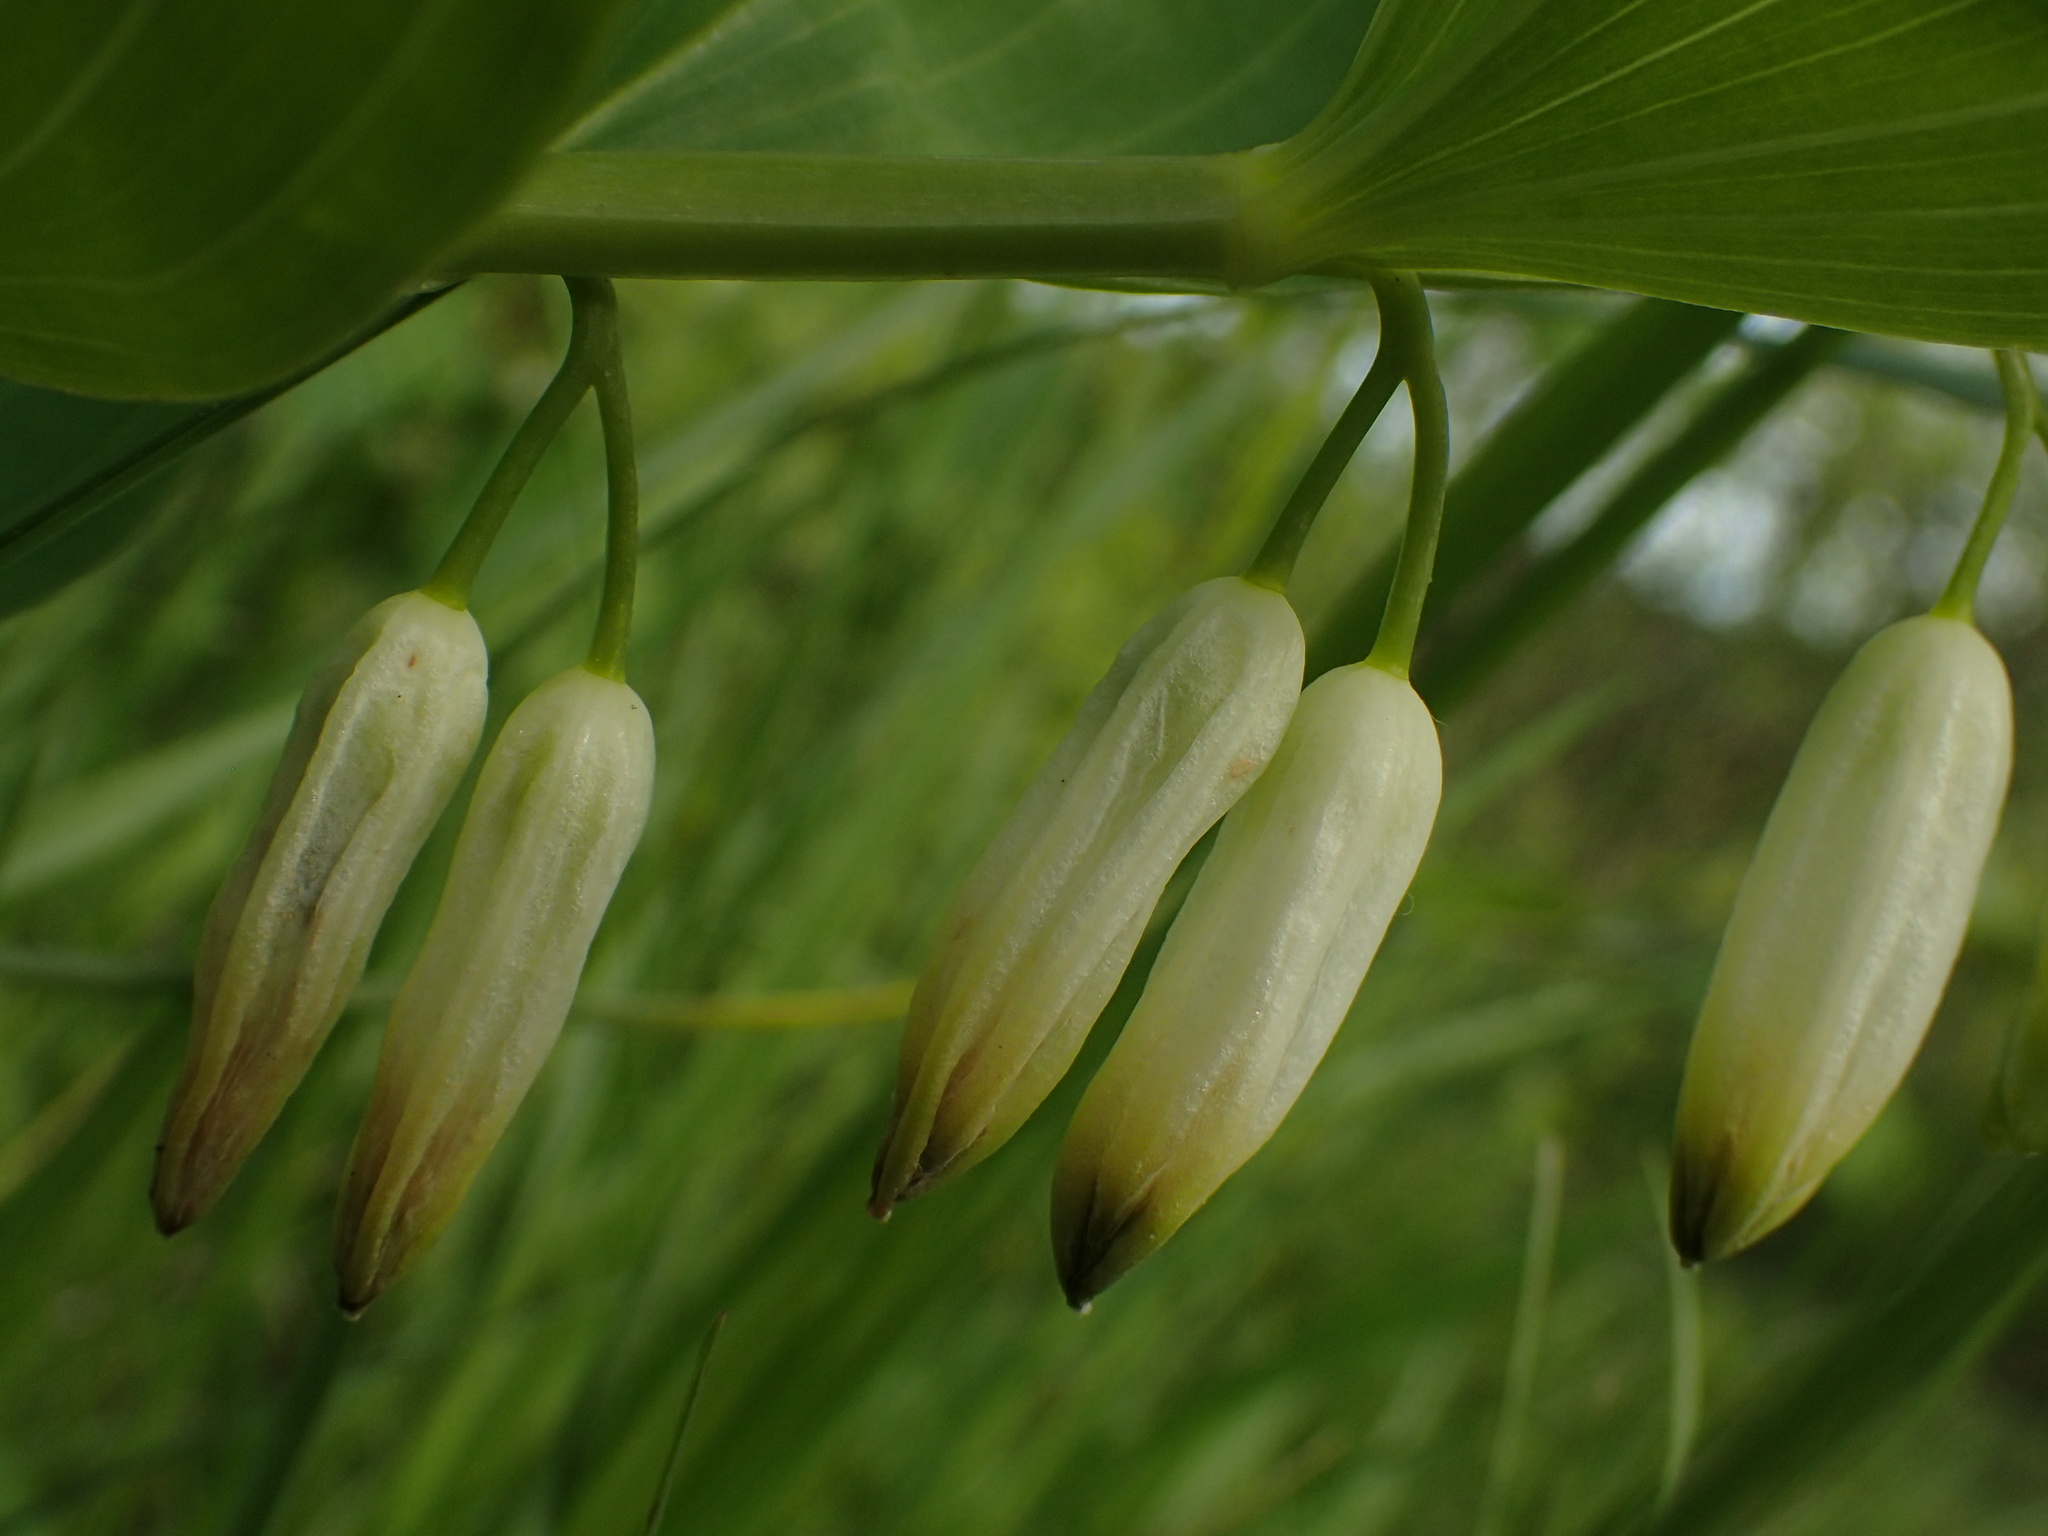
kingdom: Plantae
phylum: Tracheophyta
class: Liliopsida
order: Asparagales
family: Asparagaceae
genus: Polygonatum
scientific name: Polygonatum odoratum
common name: Angular solomon's-seal
